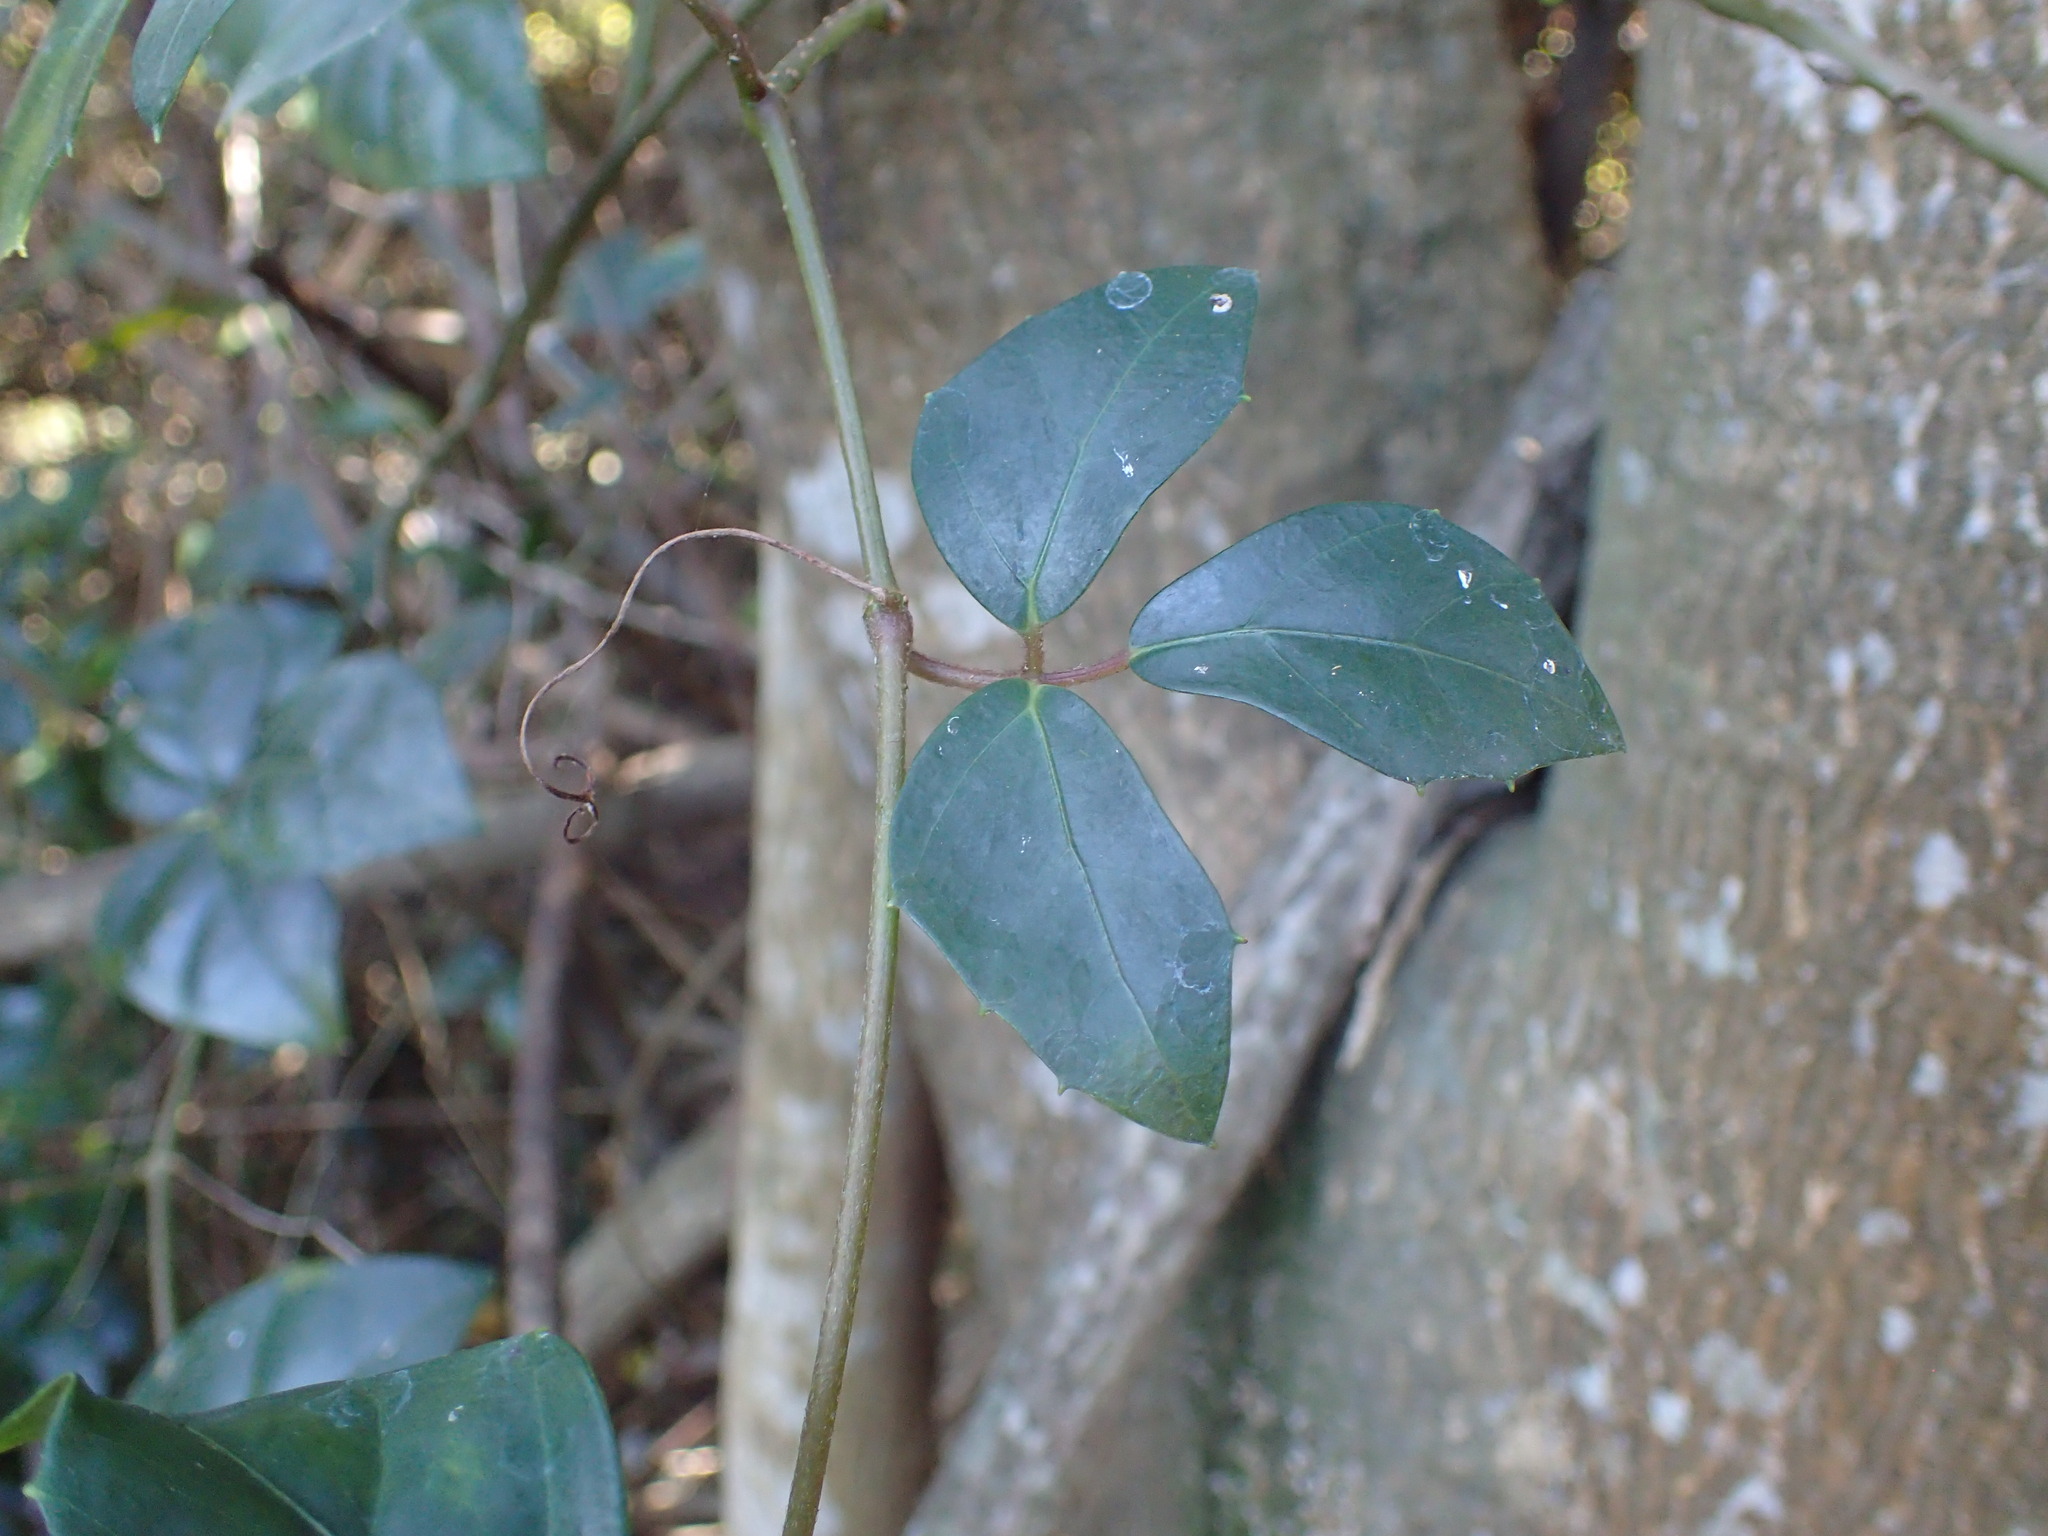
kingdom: Plantae
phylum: Tracheophyta
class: Magnoliopsida
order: Vitales
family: Vitaceae
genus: Rhoicissus
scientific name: Rhoicissus rhomboidea
